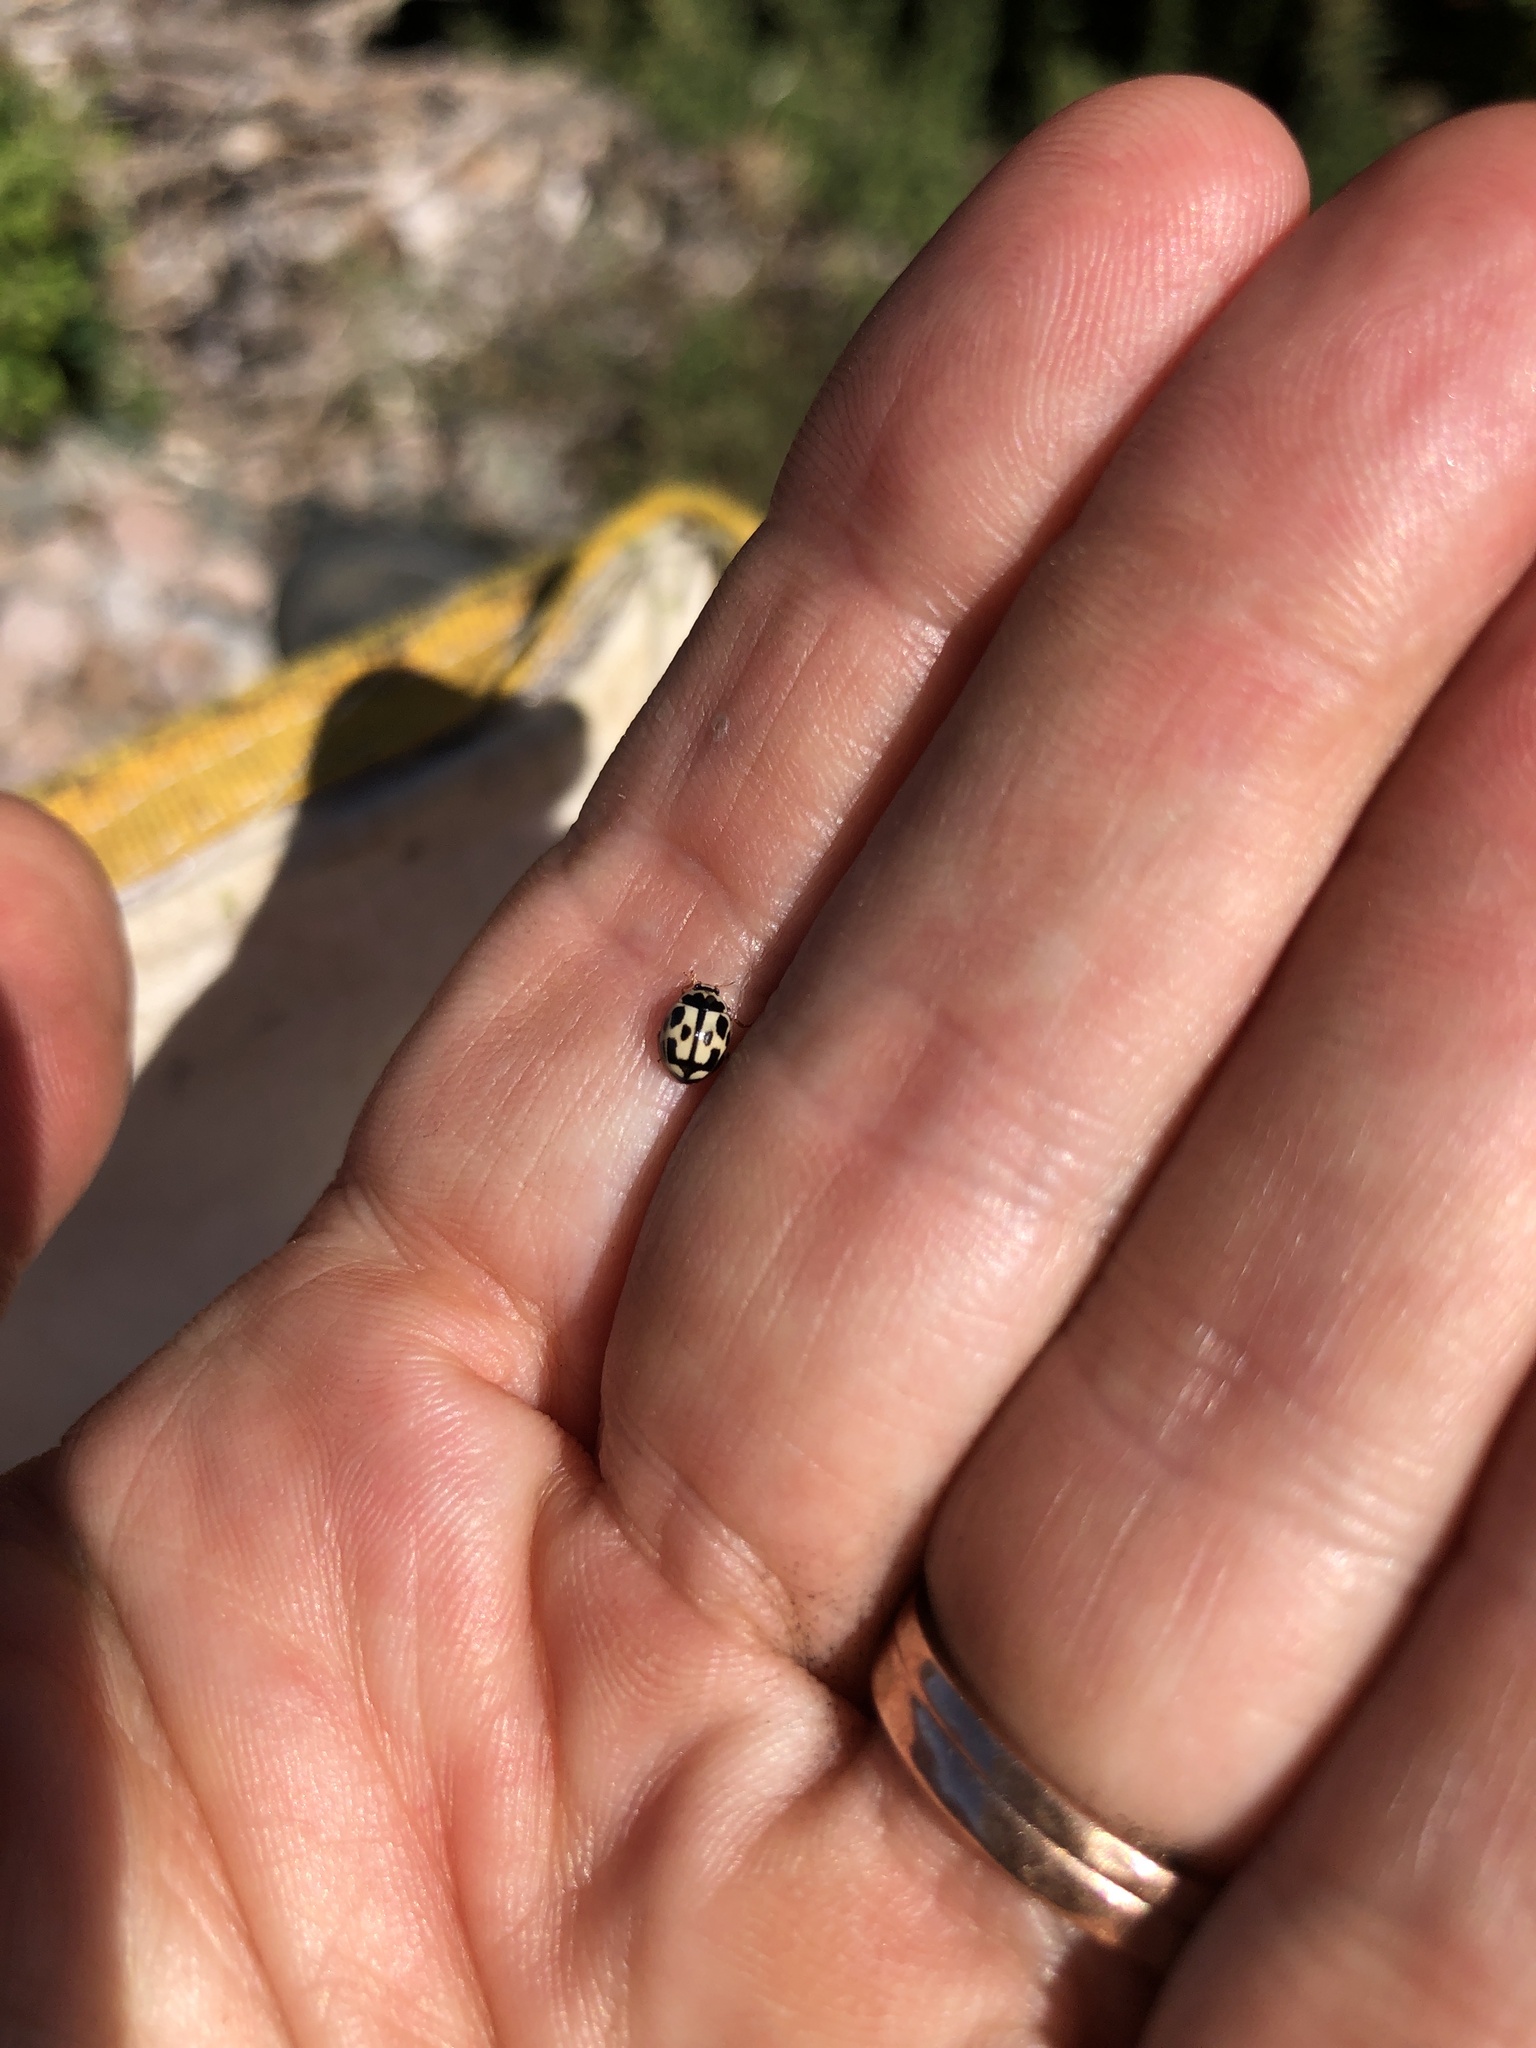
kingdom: Animalia
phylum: Arthropoda
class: Insecta
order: Coleoptera
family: Coccinellidae
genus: Propylaea
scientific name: Propylaea quatuordecimpunctata
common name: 14-spotted ladybird beetle
